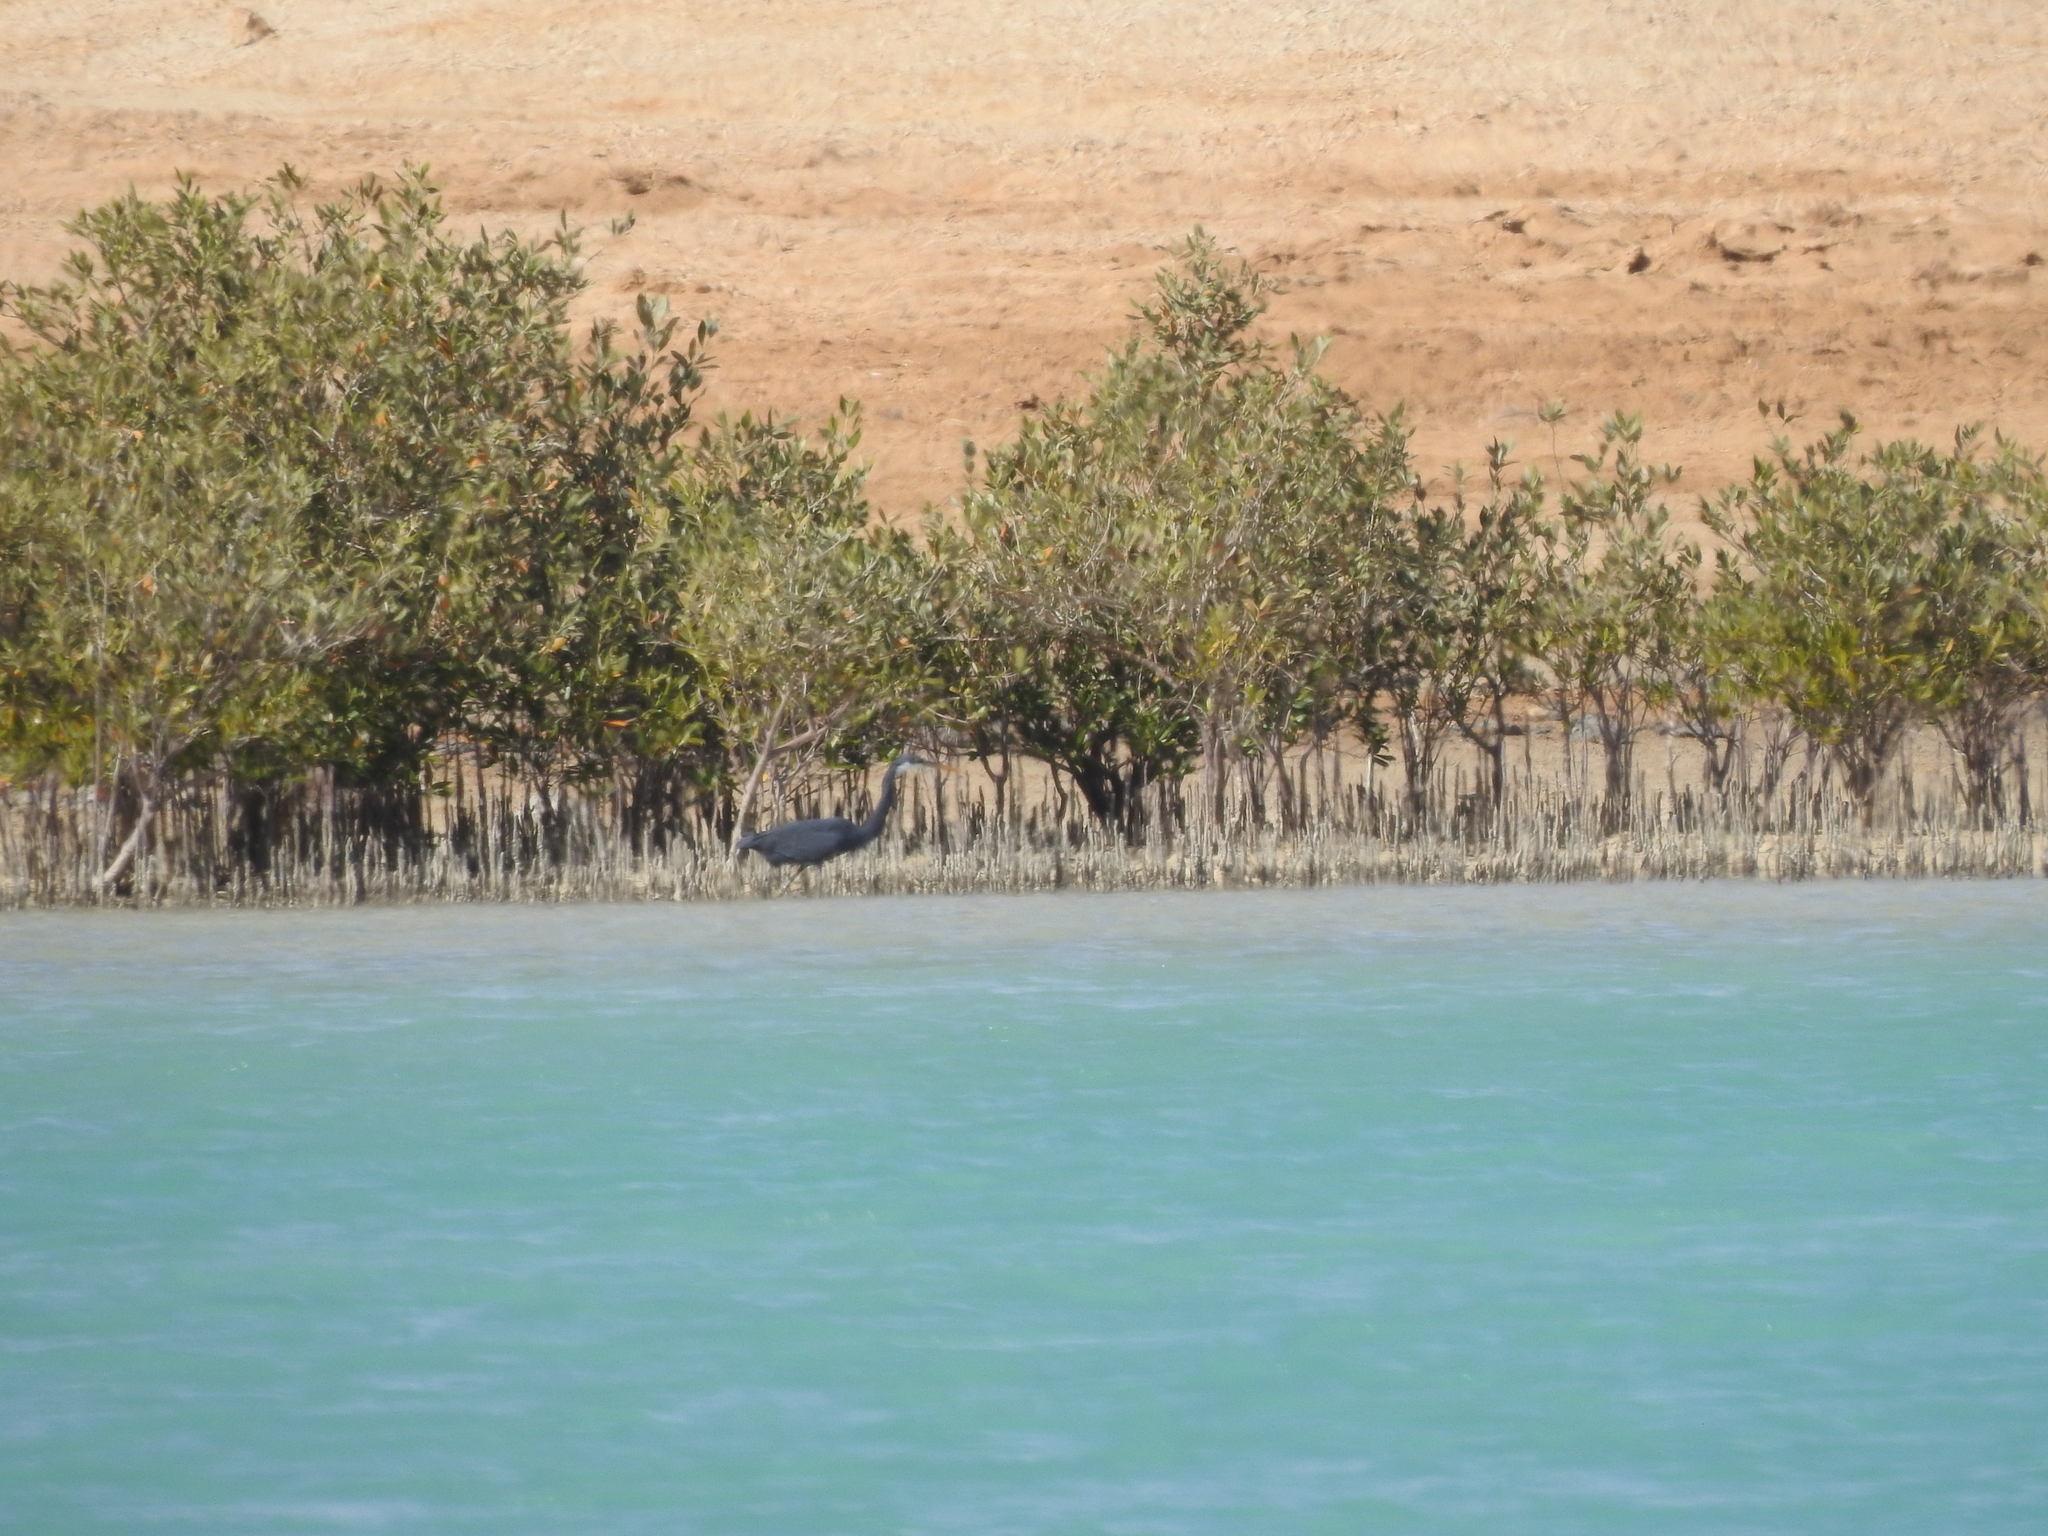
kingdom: Animalia
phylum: Chordata
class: Aves
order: Pelecaniformes
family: Ardeidae
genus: Egretta
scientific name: Egretta gularis
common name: Western reef-heron
